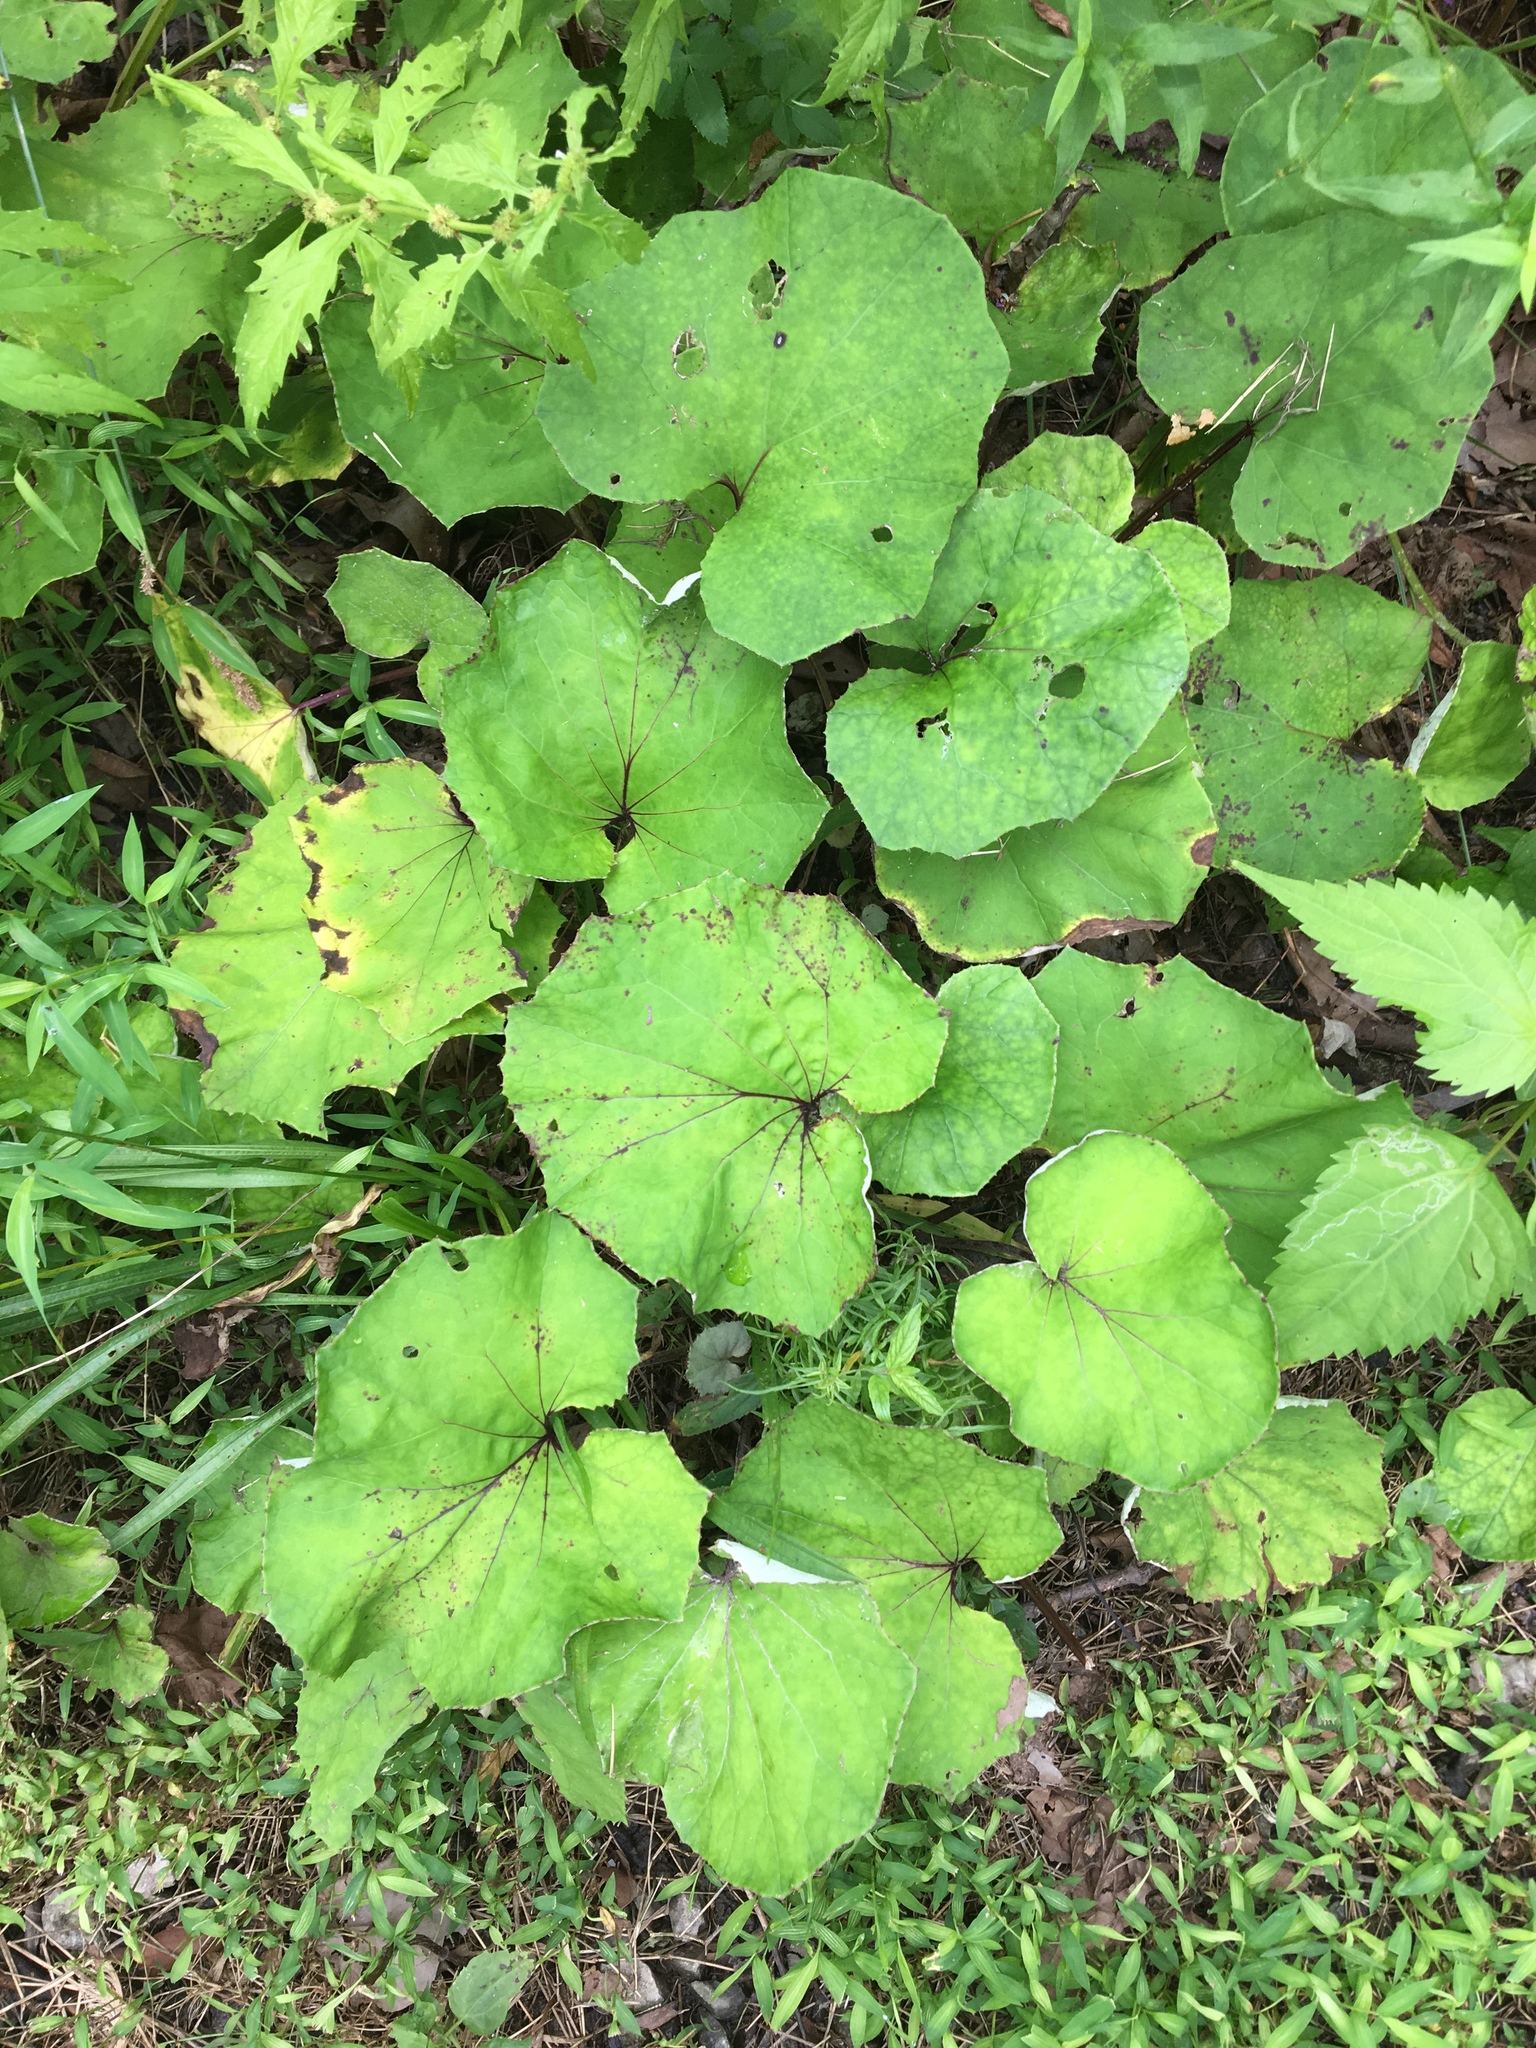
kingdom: Plantae
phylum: Tracheophyta
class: Magnoliopsida
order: Asterales
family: Asteraceae
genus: Tussilago
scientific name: Tussilago farfara
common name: Coltsfoot
